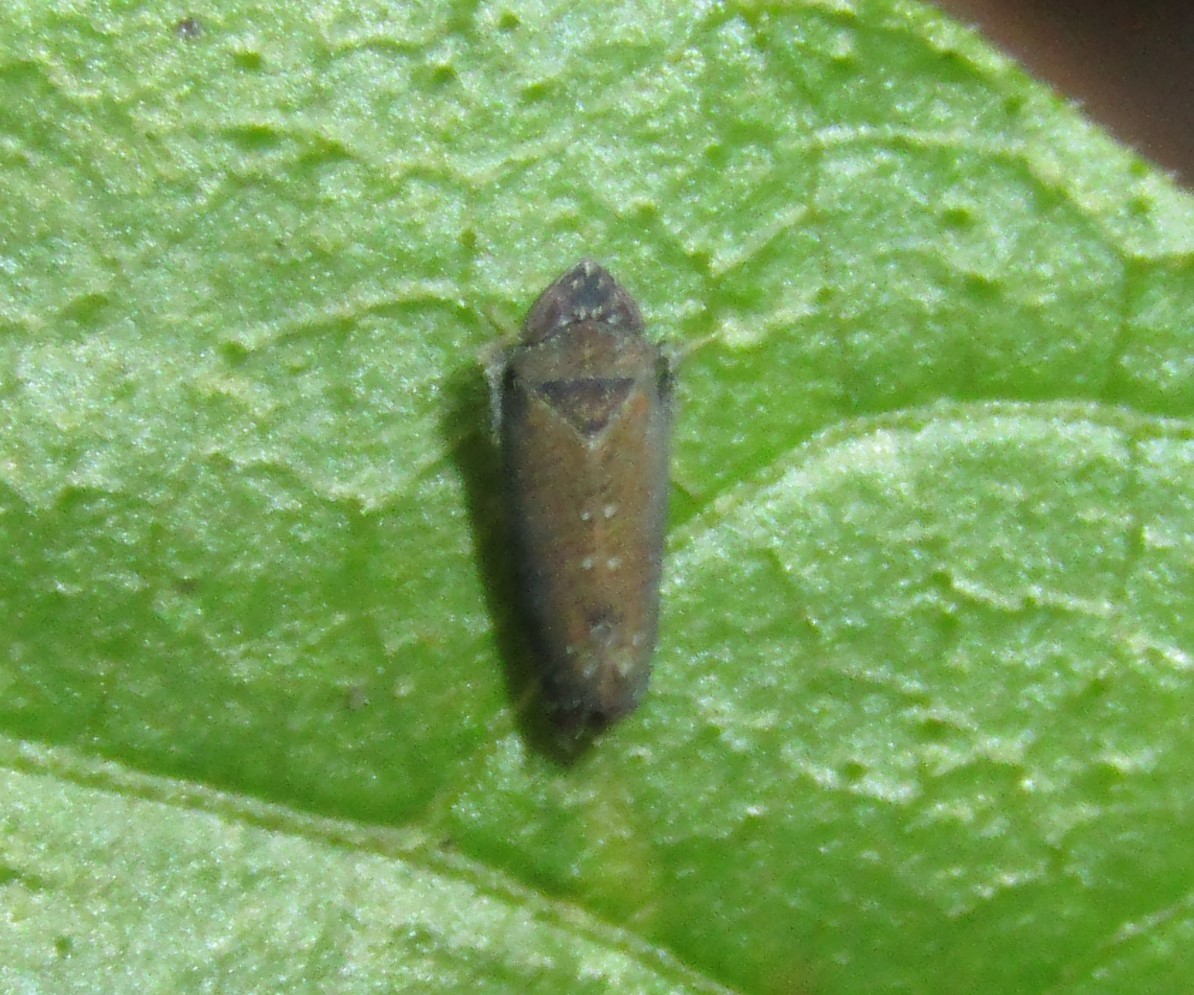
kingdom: Animalia
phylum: Arthropoda
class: Insecta
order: Hemiptera
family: Cicadellidae
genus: Scaphytopius
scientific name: Scaphytopius nigrifrons
